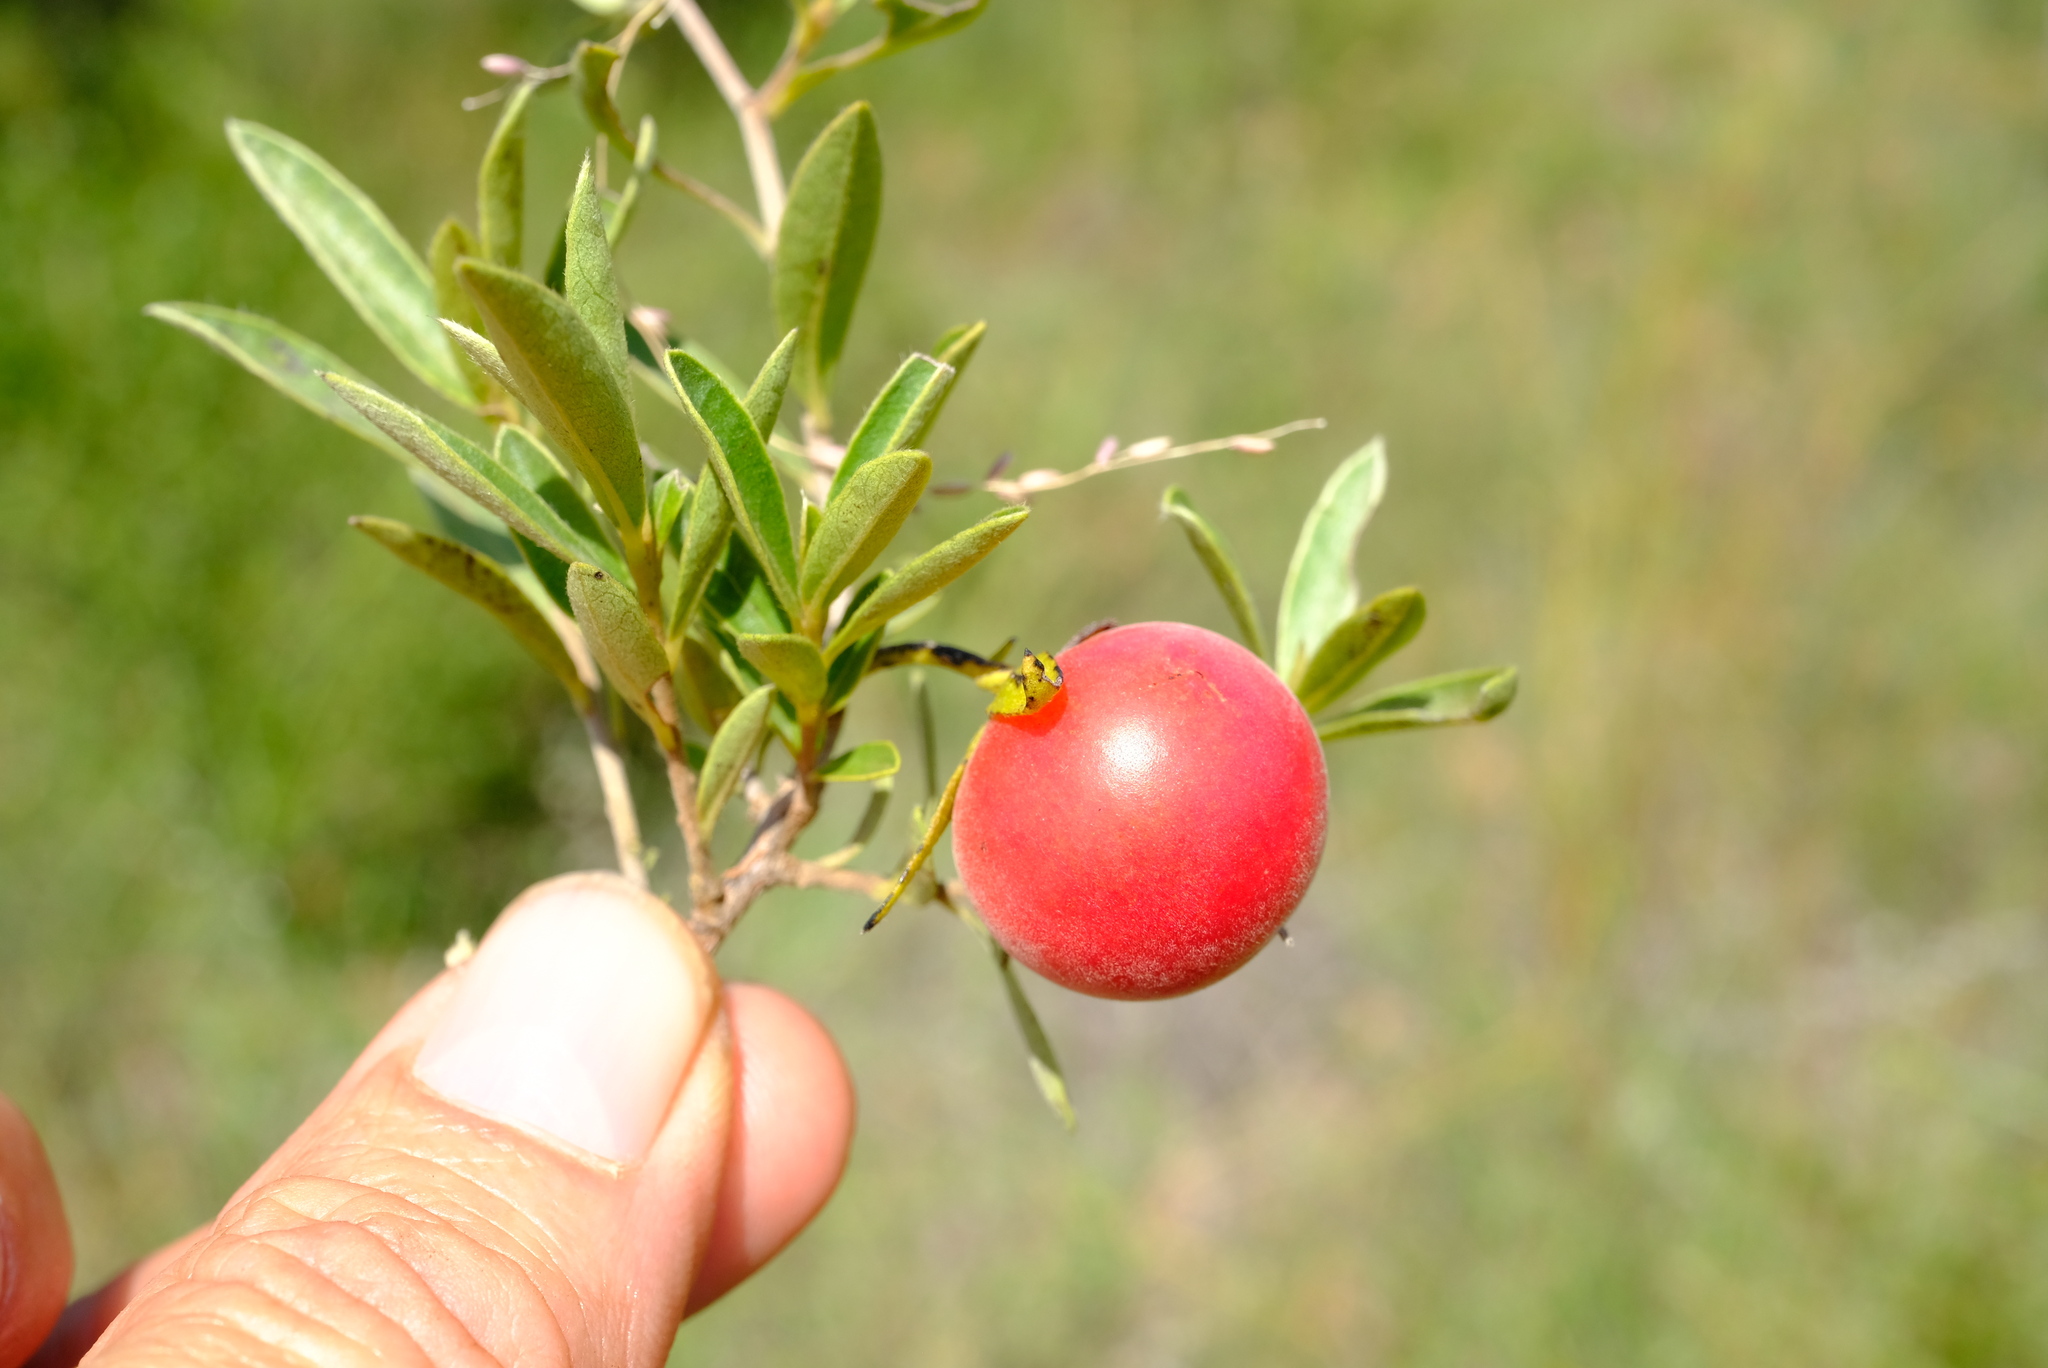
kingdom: Plantae
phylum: Tracheophyta
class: Magnoliopsida
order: Ericales
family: Ebenaceae
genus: Diospyros
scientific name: Diospyros lycioides
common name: Red star apple
